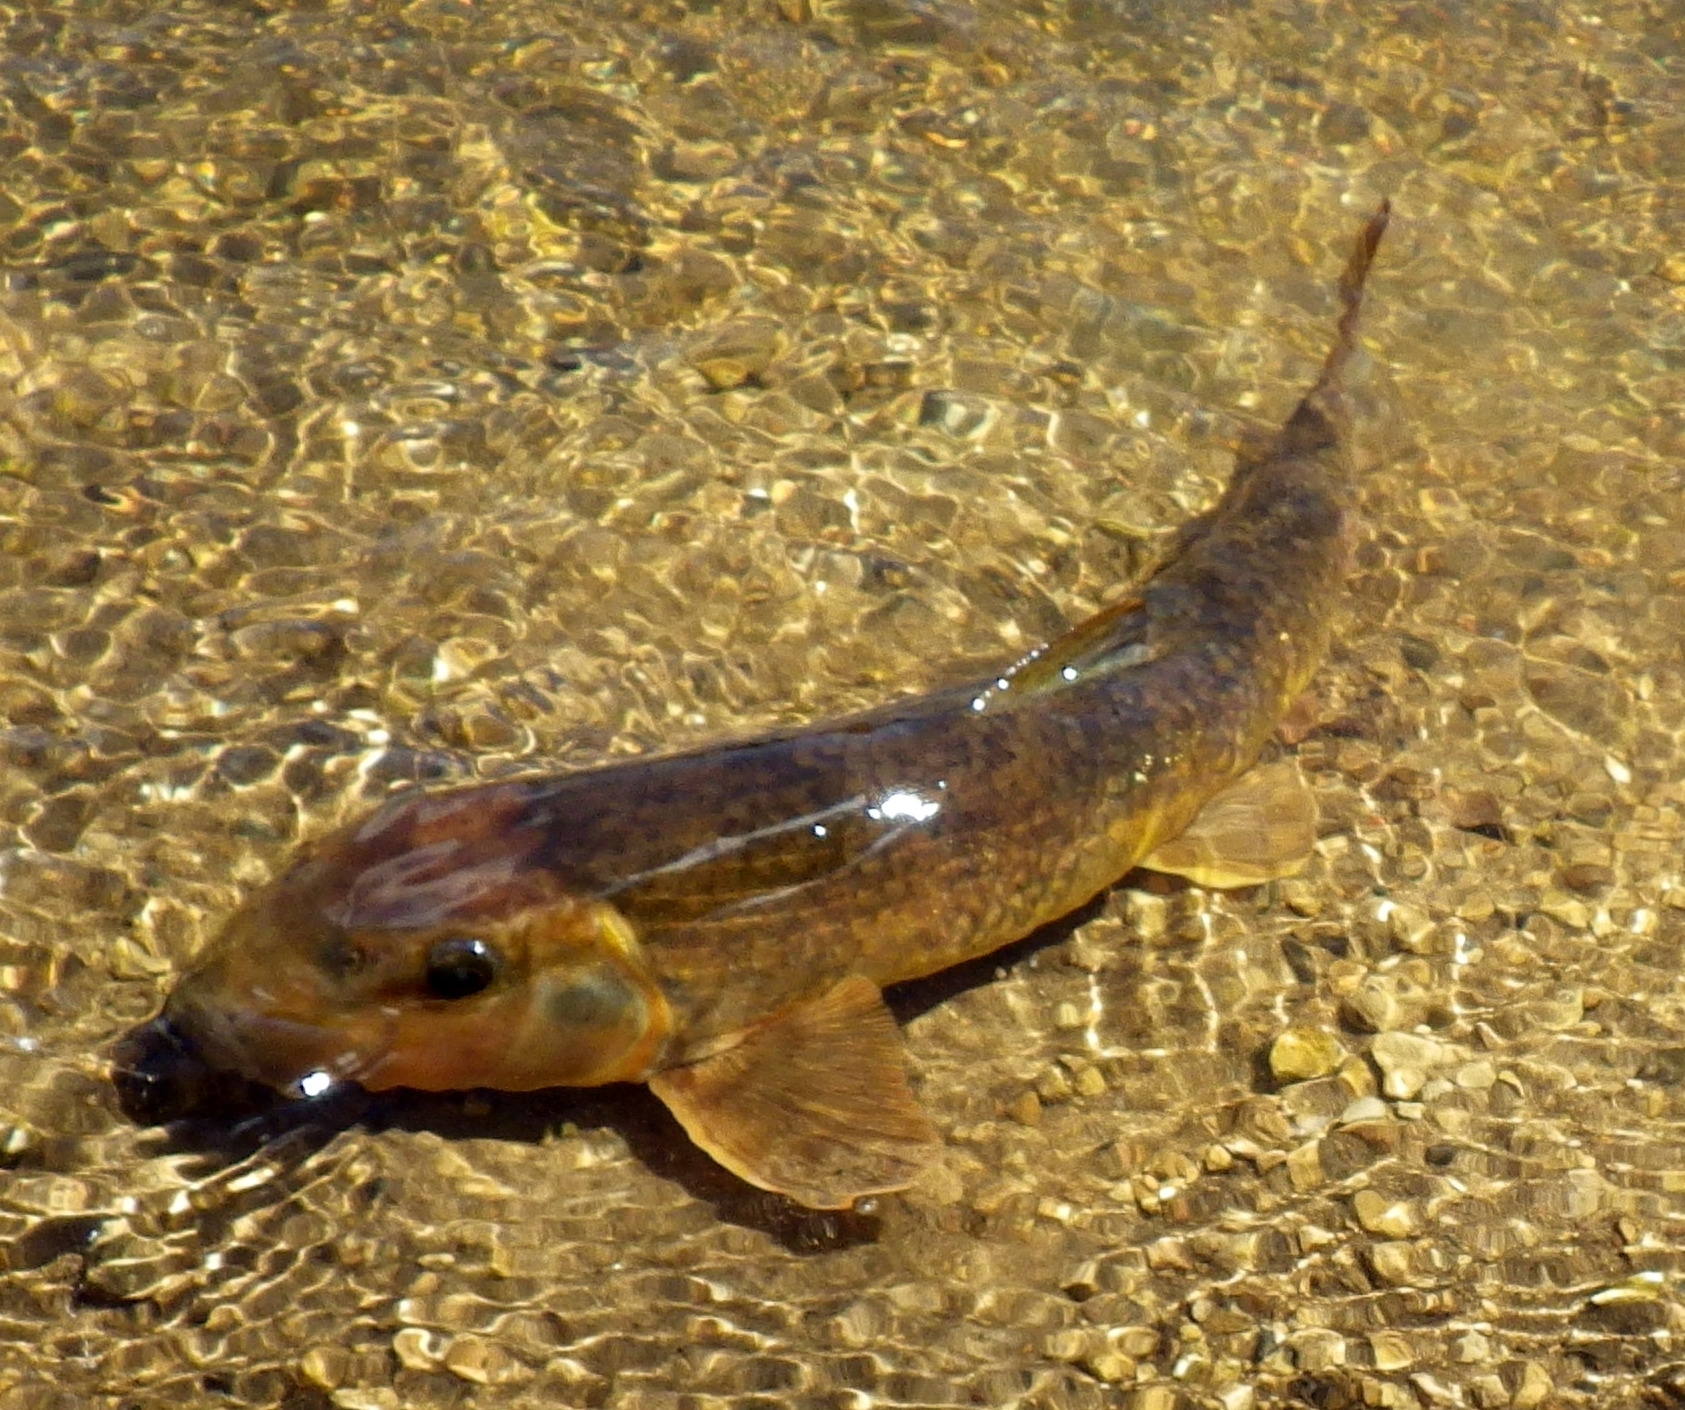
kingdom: Animalia
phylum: Chordata
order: Cypriniformes
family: Catostomidae
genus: Hypentelium
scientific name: Hypentelium nigricans
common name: Northern hog sucker
